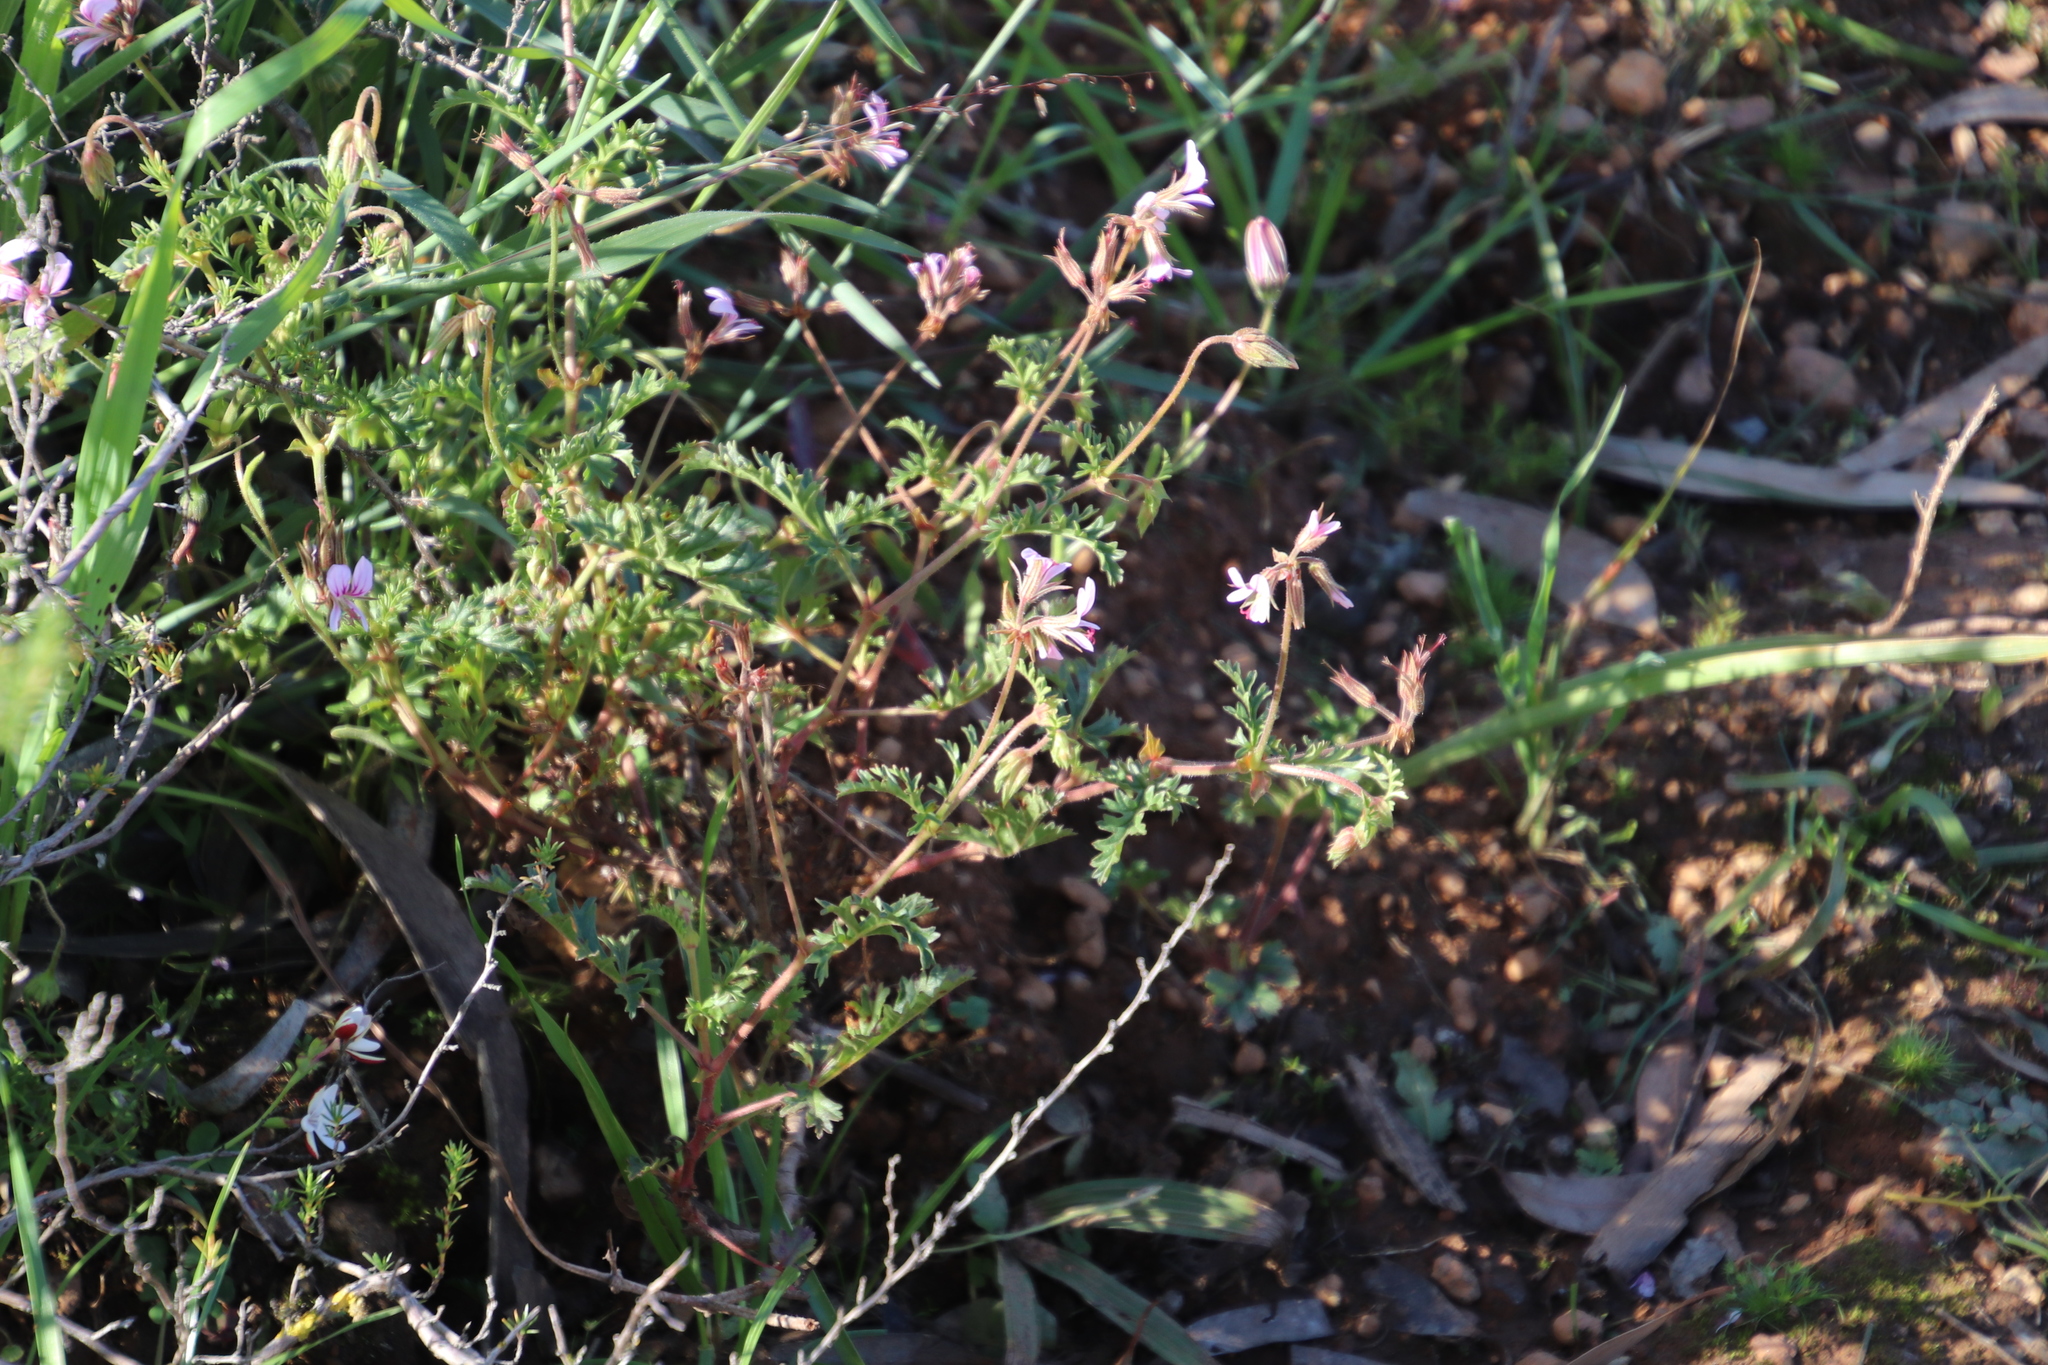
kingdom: Plantae
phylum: Tracheophyta
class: Magnoliopsida
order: Geraniales
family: Geraniaceae
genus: Pelargonium
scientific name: Pelargonium myrrhifolium
